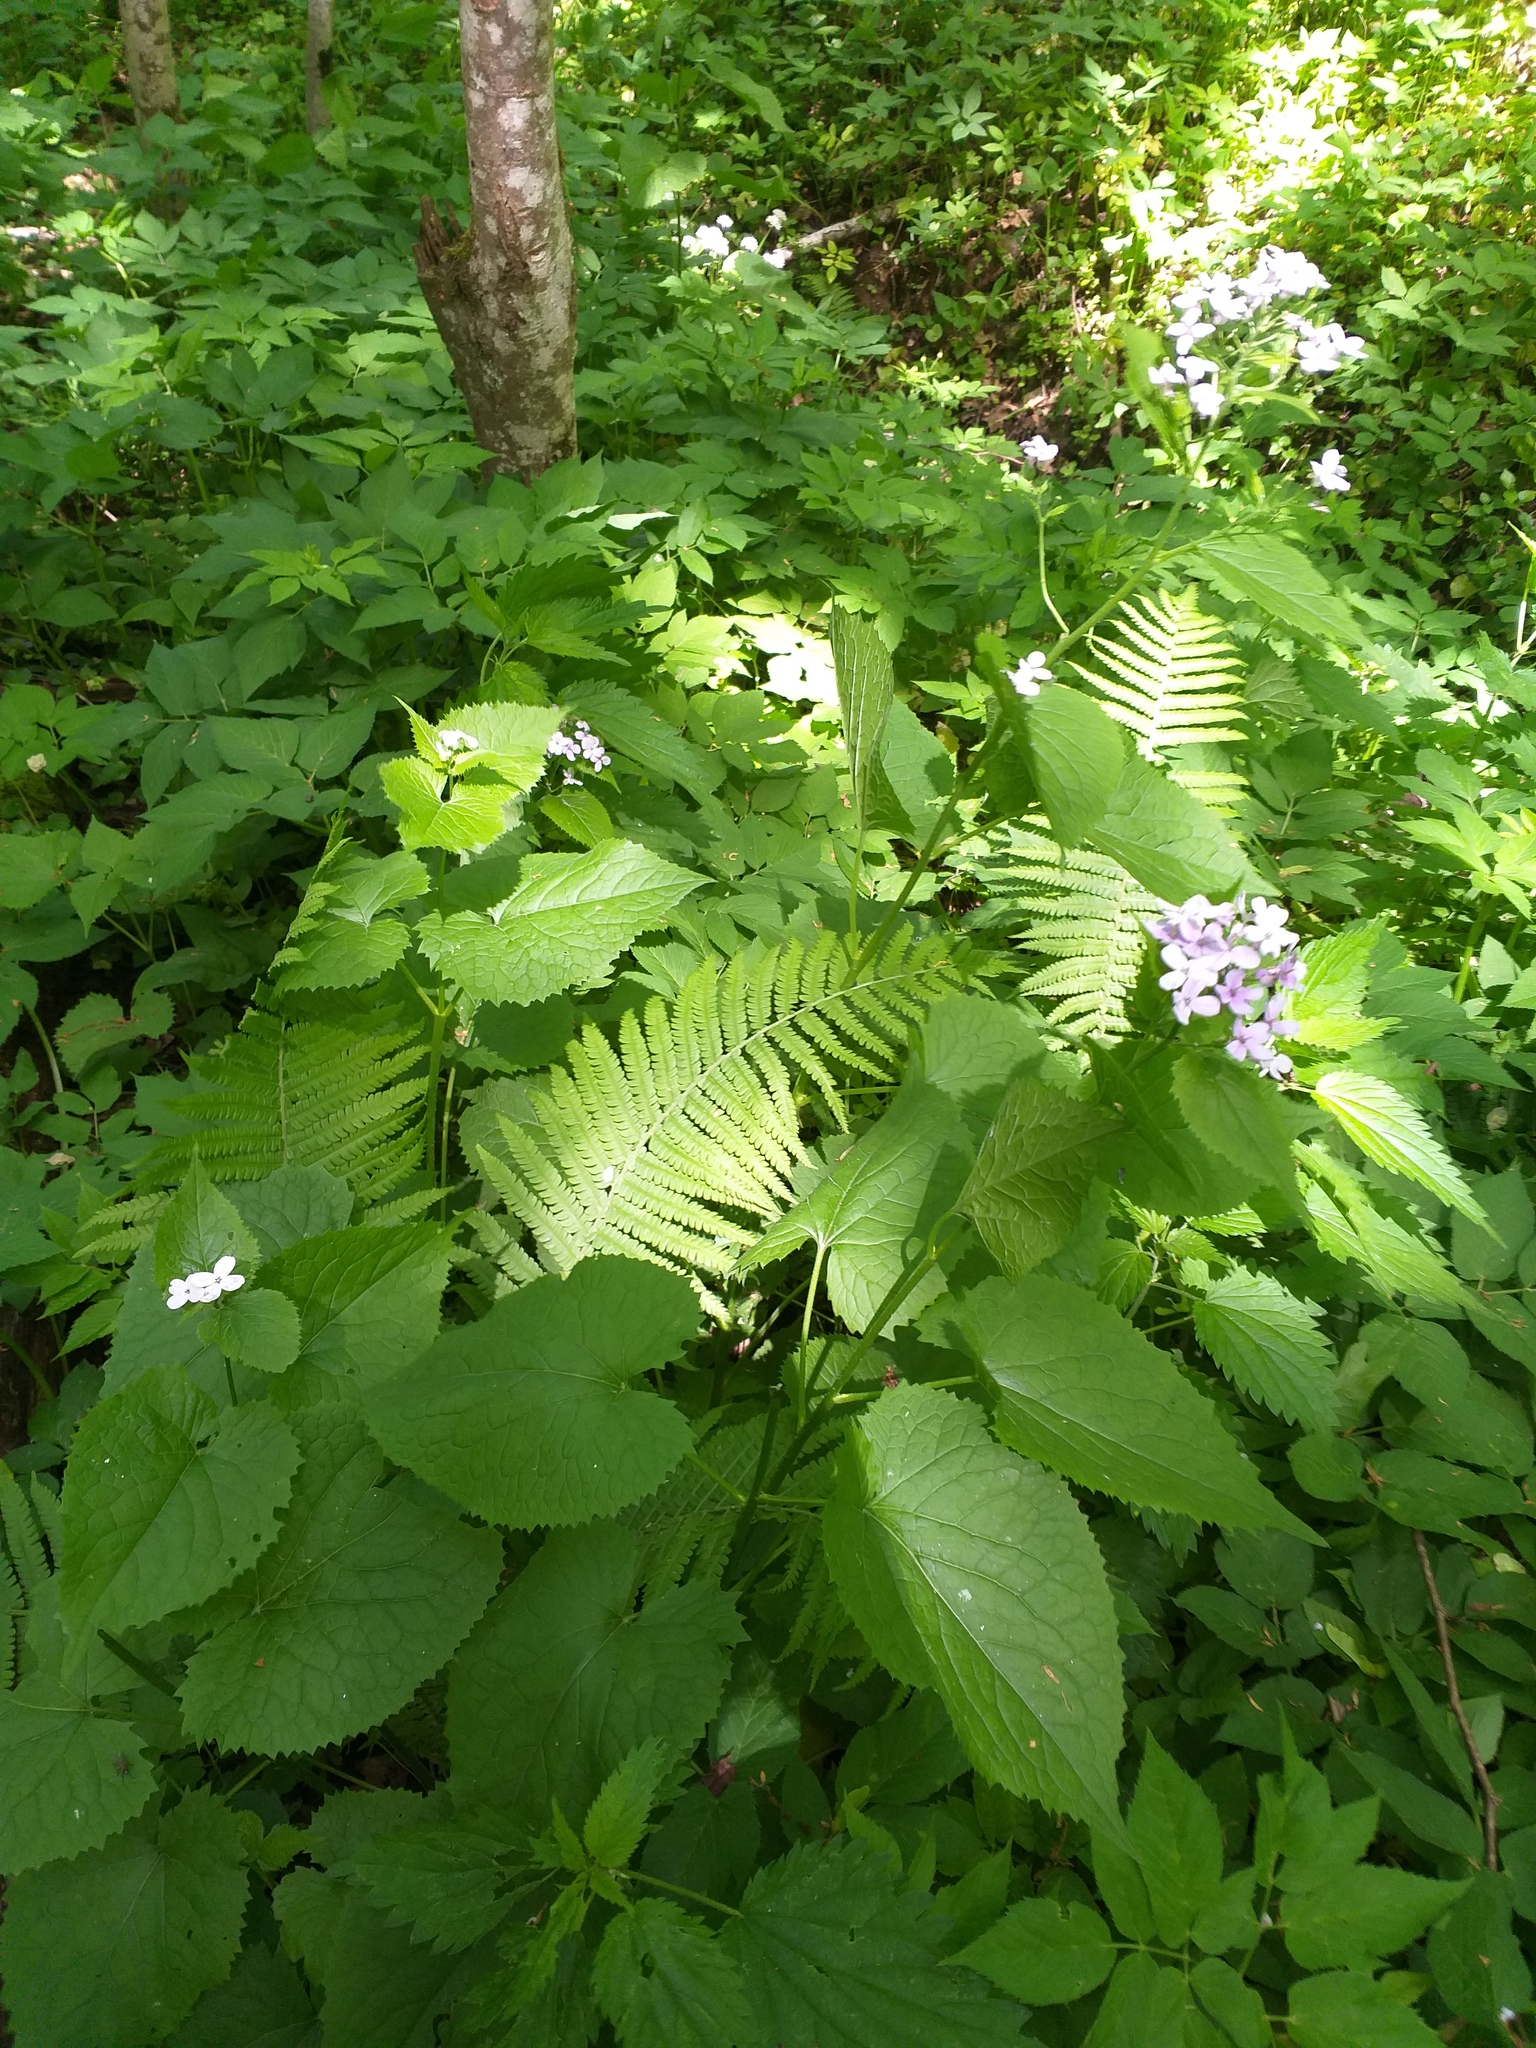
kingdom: Plantae
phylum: Tracheophyta
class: Magnoliopsida
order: Brassicales
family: Brassicaceae
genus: Lunaria
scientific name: Lunaria rediviva
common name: Perennial honesty
